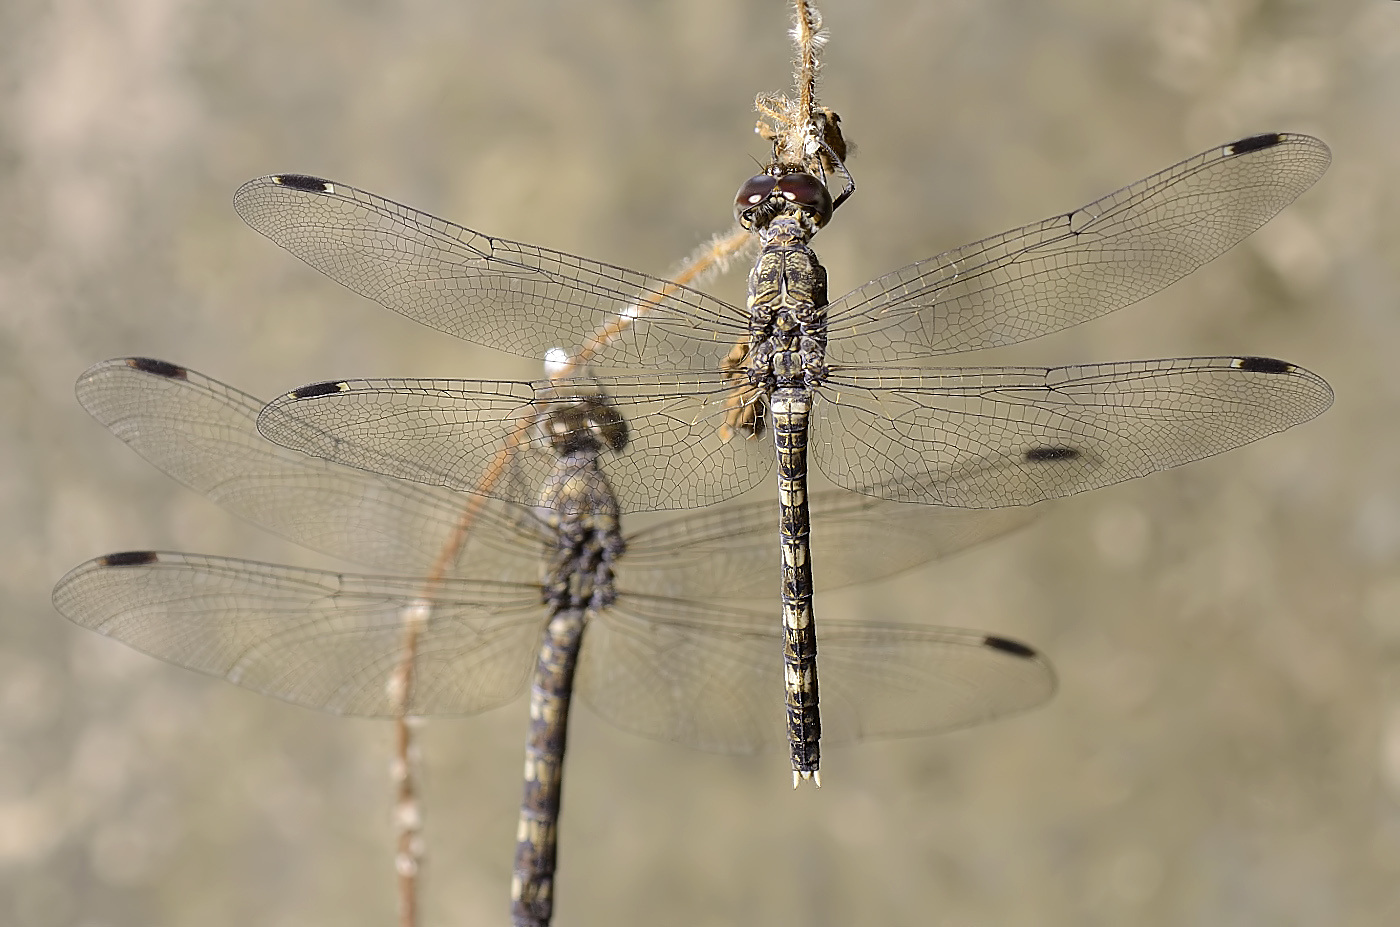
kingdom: Animalia
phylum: Arthropoda
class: Insecta
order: Odonata
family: Libellulidae
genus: Bradinopyga
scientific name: Bradinopyga geminata
